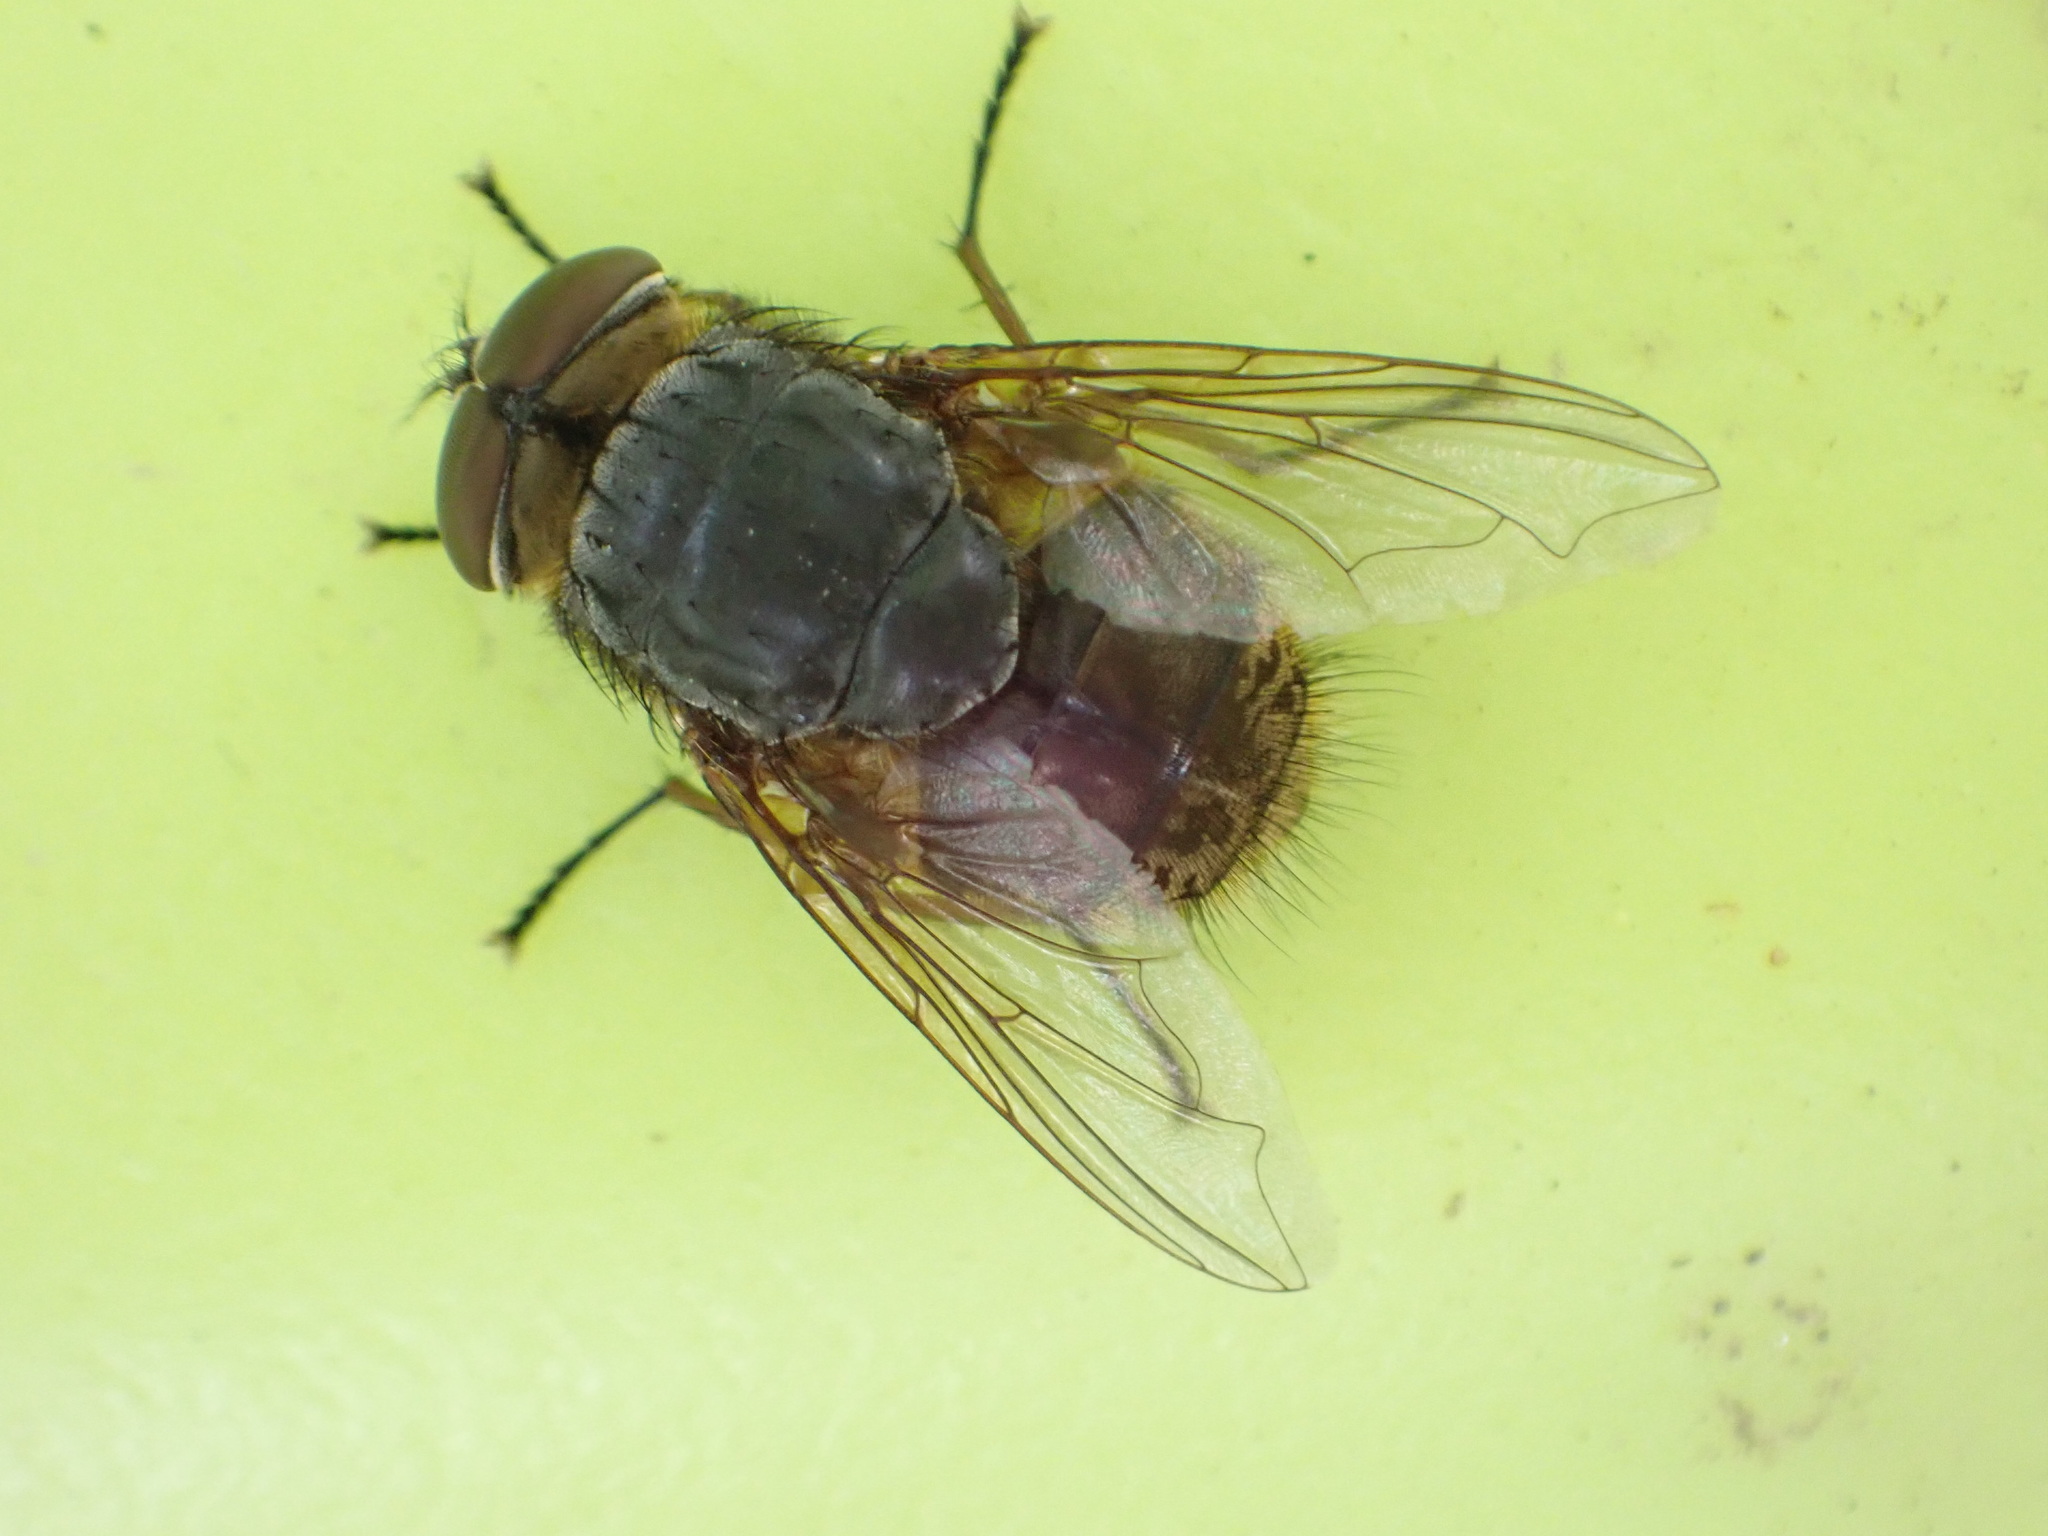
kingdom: Animalia
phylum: Arthropoda
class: Insecta
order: Diptera
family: Calliphoridae
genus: Calliphora
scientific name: Calliphora stygia
